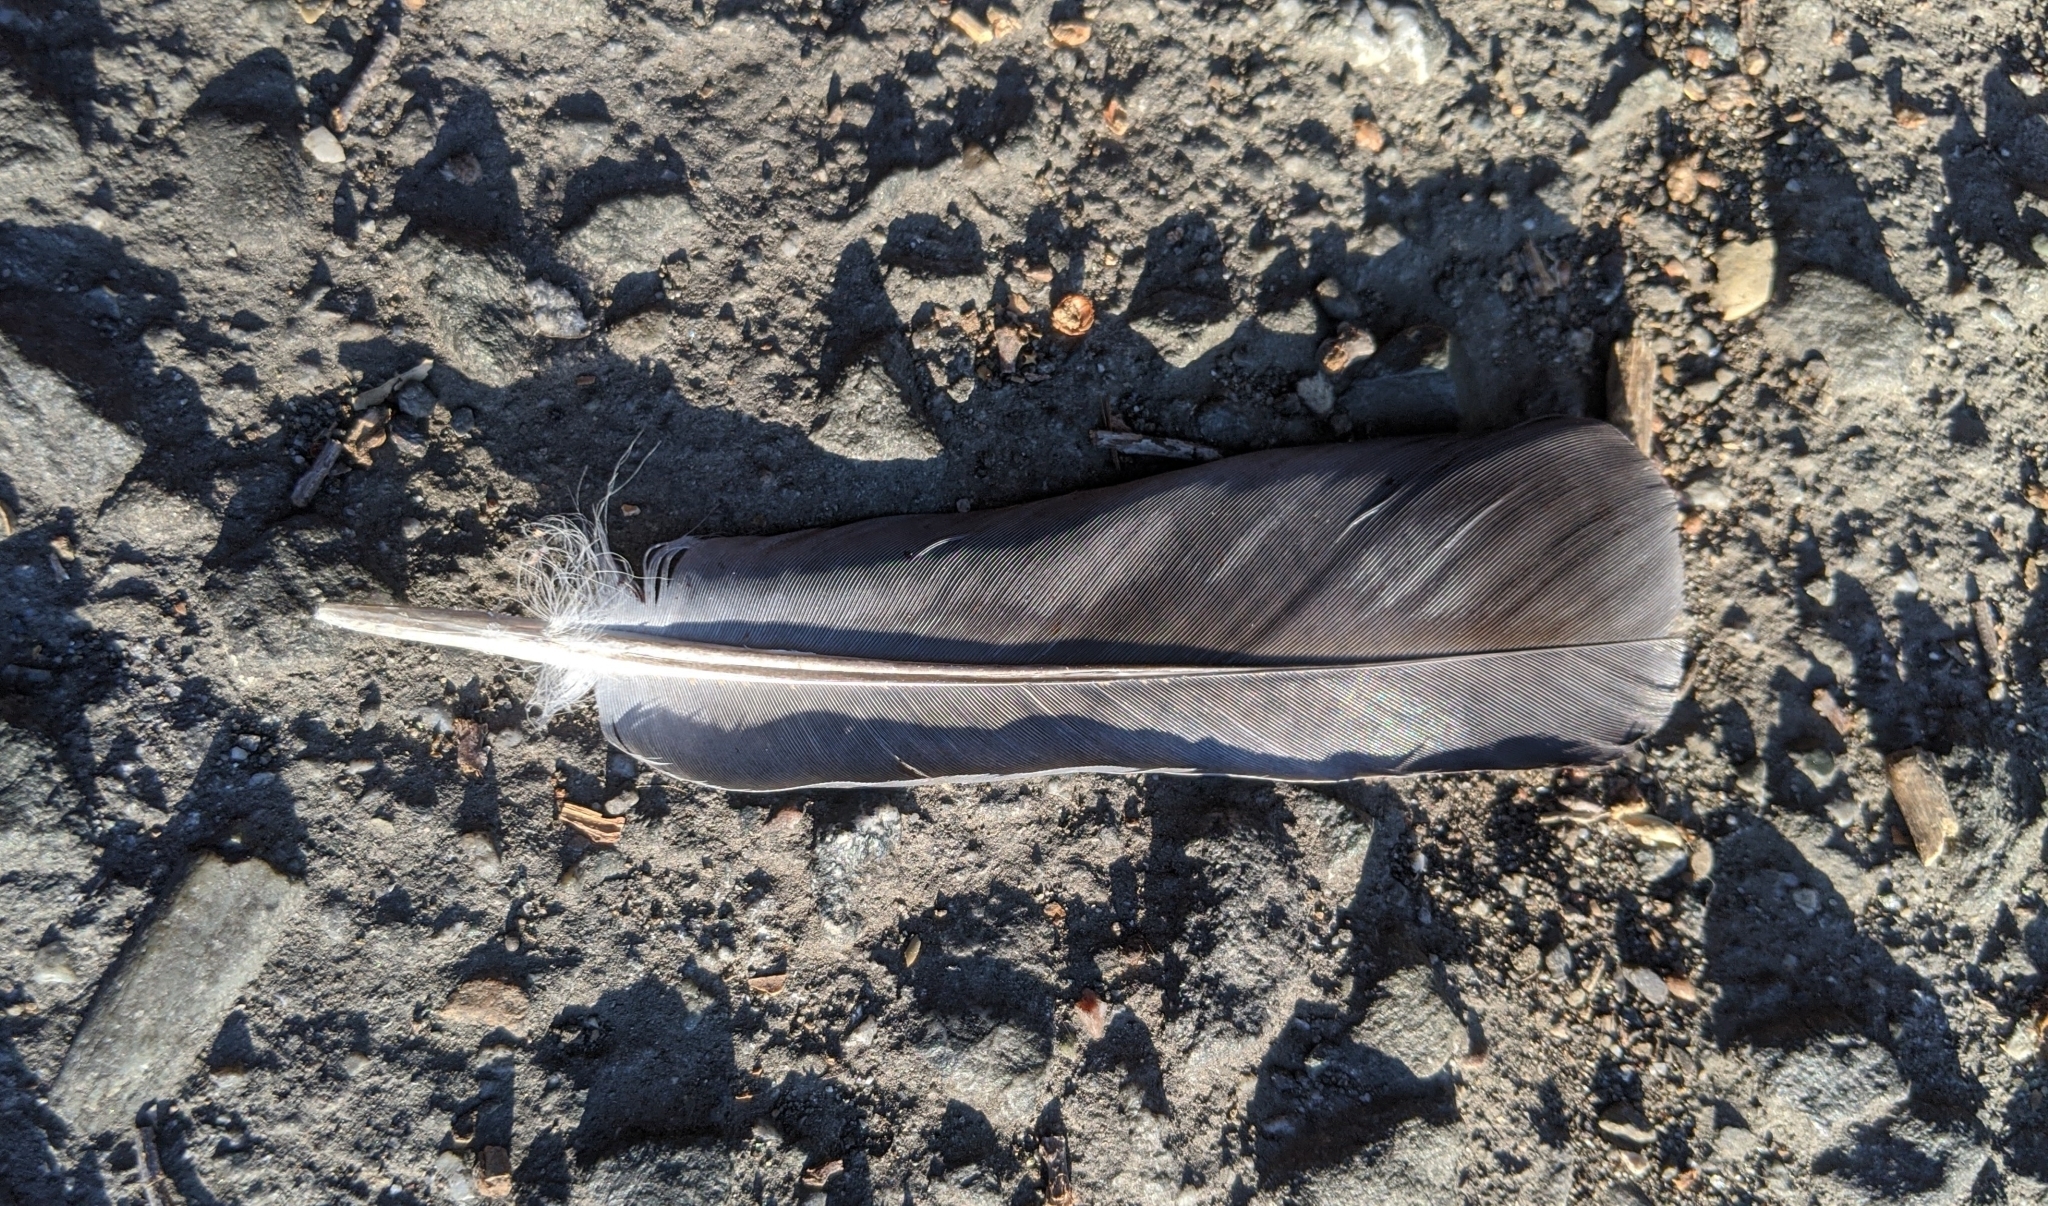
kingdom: Animalia
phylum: Chordata
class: Aves
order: Columbiformes
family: Columbidae
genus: Columba
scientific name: Columba livia
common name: Rock pigeon
